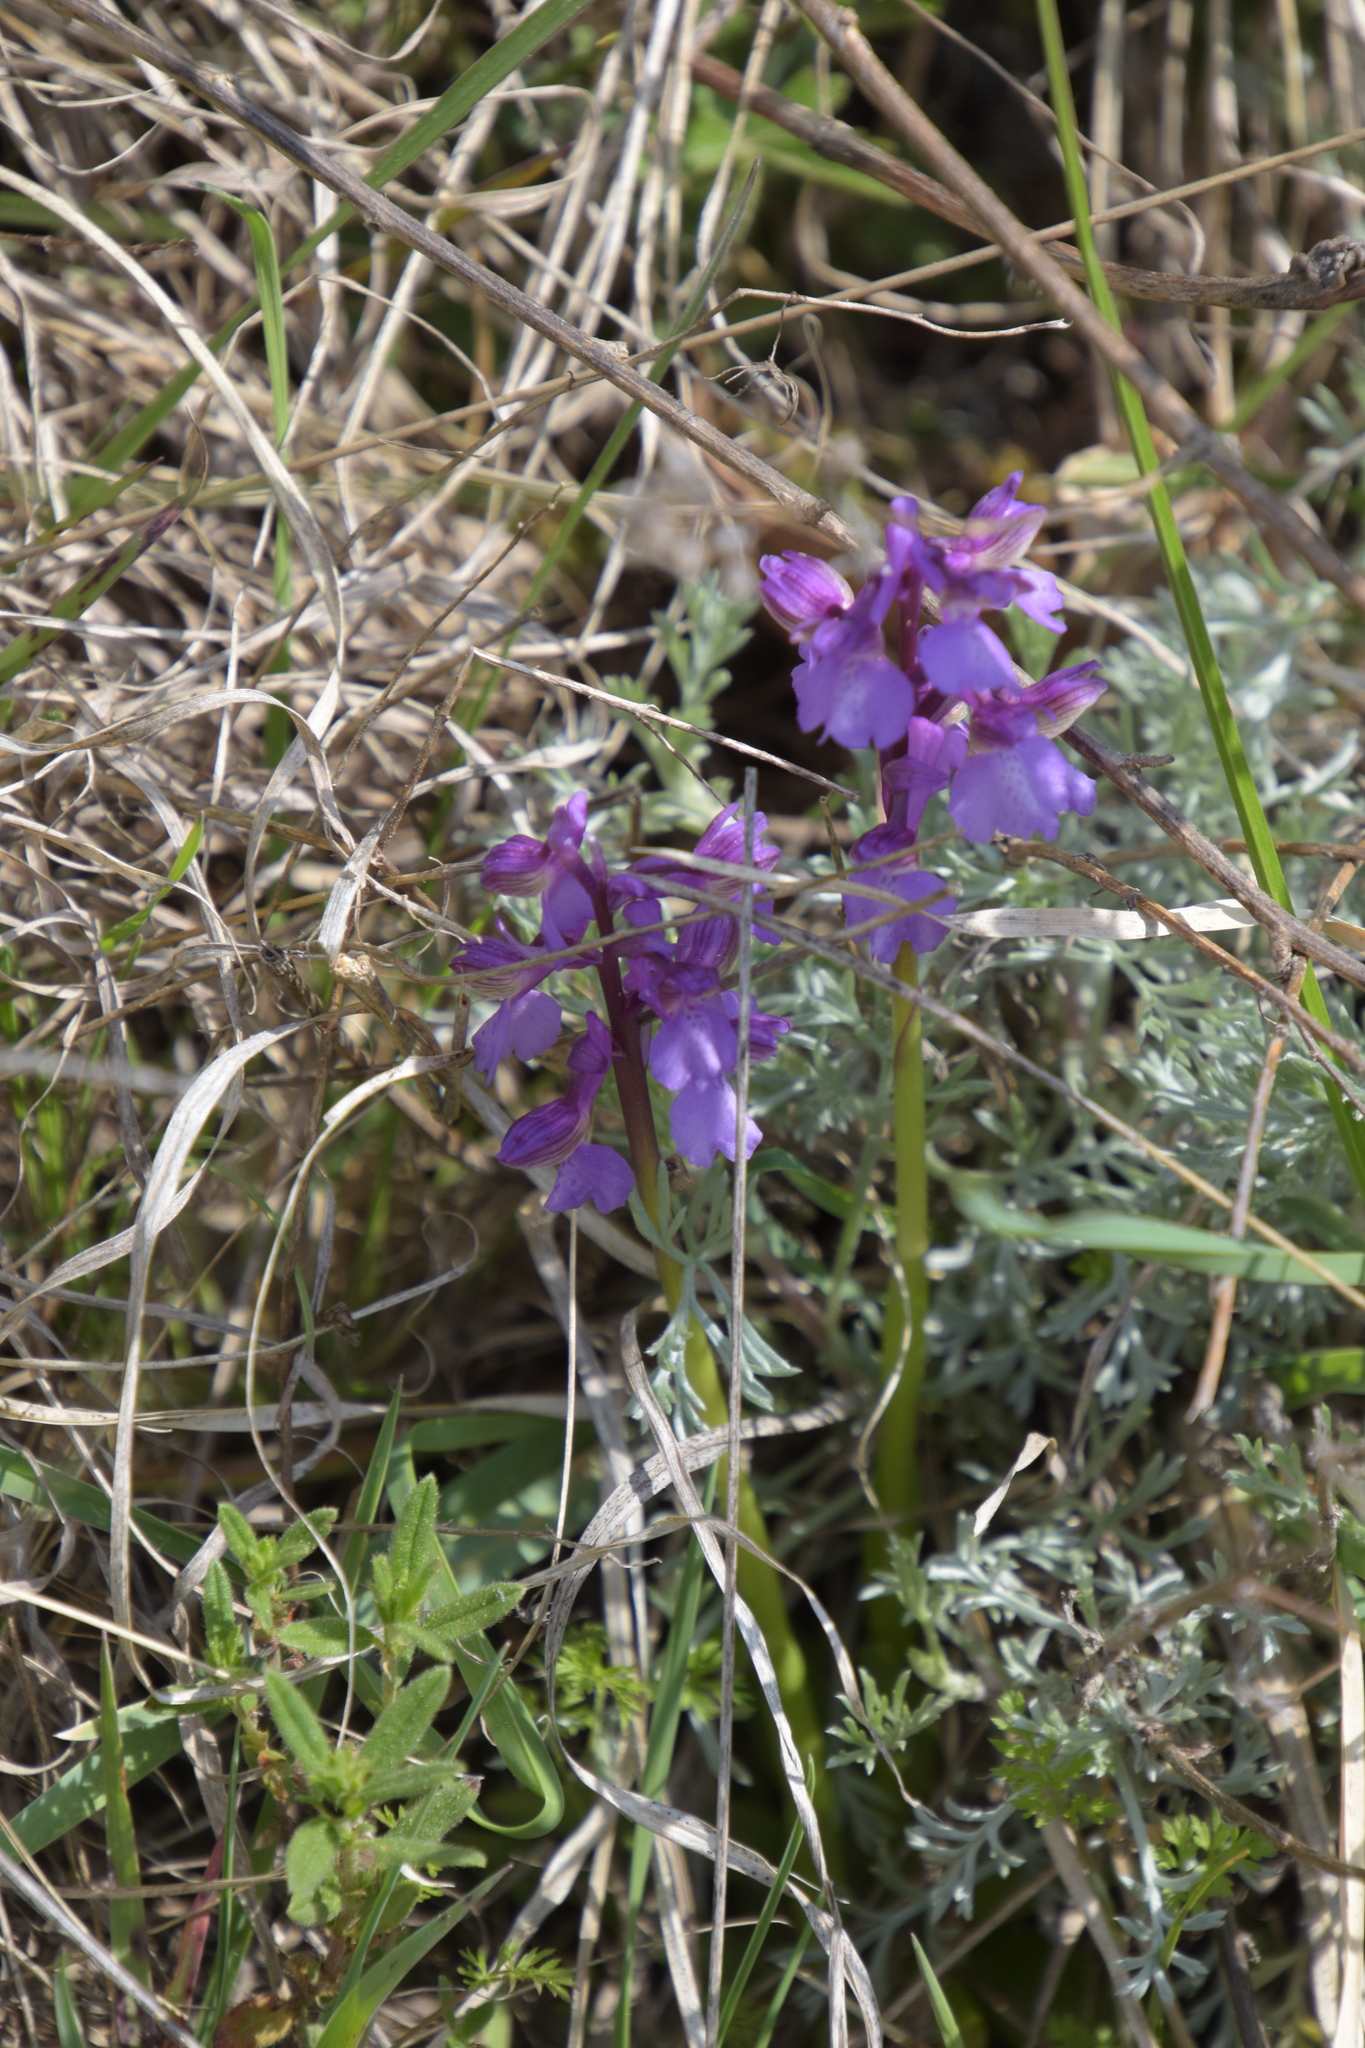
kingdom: Plantae
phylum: Tracheophyta
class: Liliopsida
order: Asparagales
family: Orchidaceae
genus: Anacamptis
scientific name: Anacamptis morio
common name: Green-winged orchid
